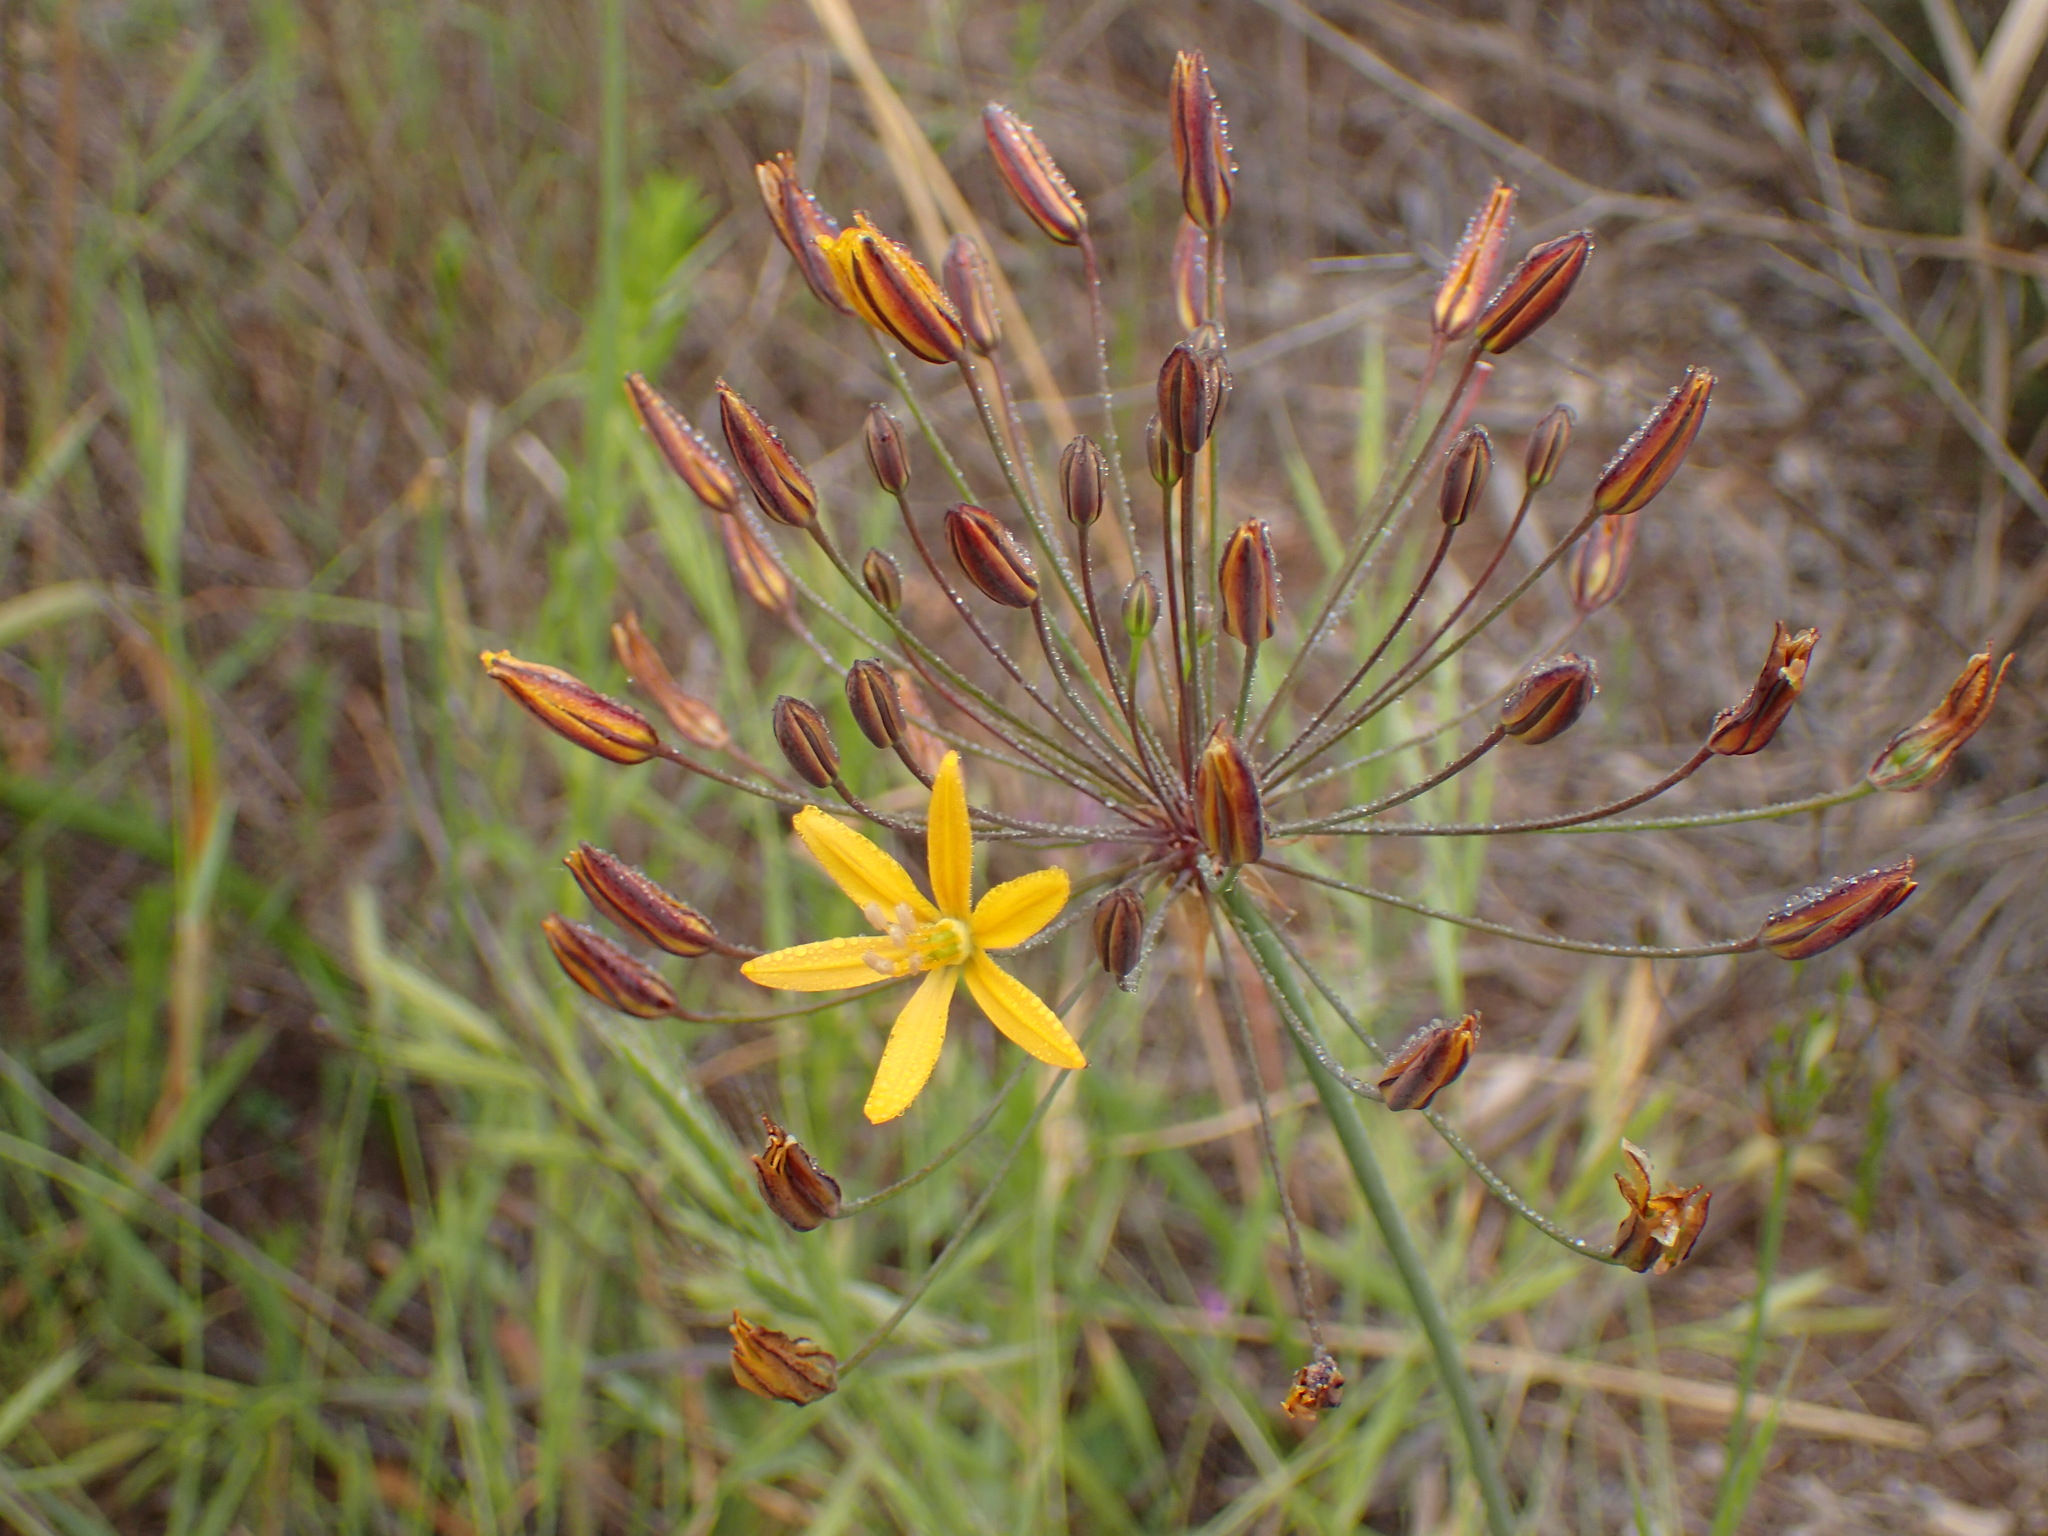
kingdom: Plantae
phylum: Tracheophyta
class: Liliopsida
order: Asparagales
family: Asparagaceae
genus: Bloomeria
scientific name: Bloomeria crocea
